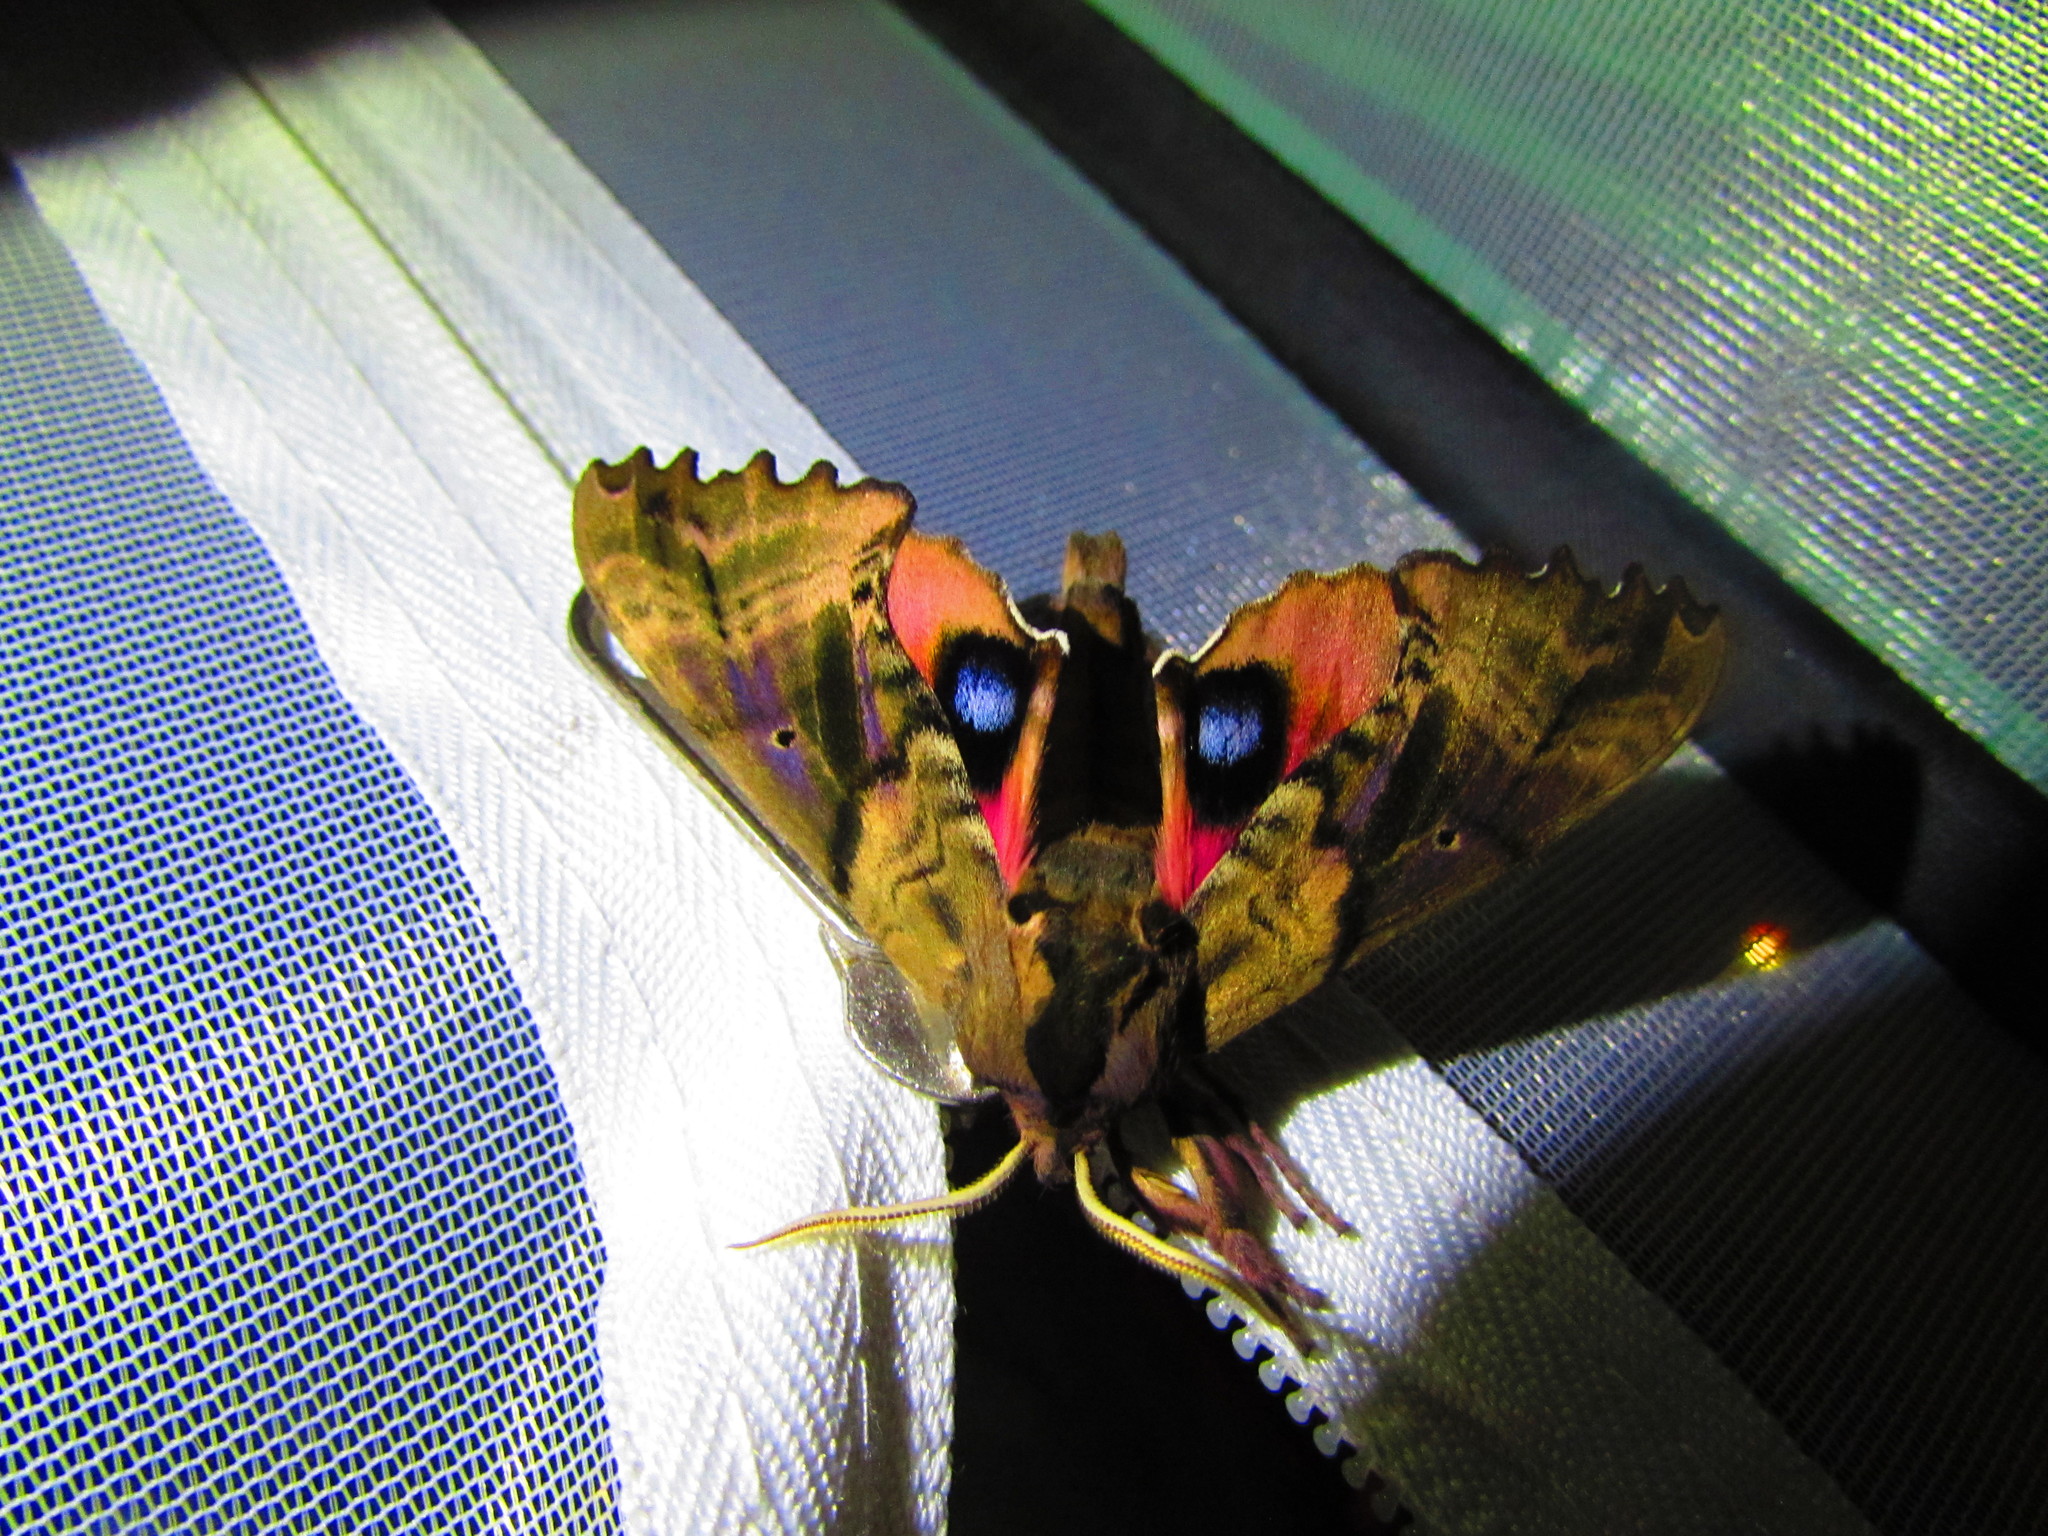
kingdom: Animalia
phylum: Arthropoda
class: Insecta
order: Lepidoptera
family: Sphingidae
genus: Paonias
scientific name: Paonias excaecata
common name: Blind-eyed sphinx
